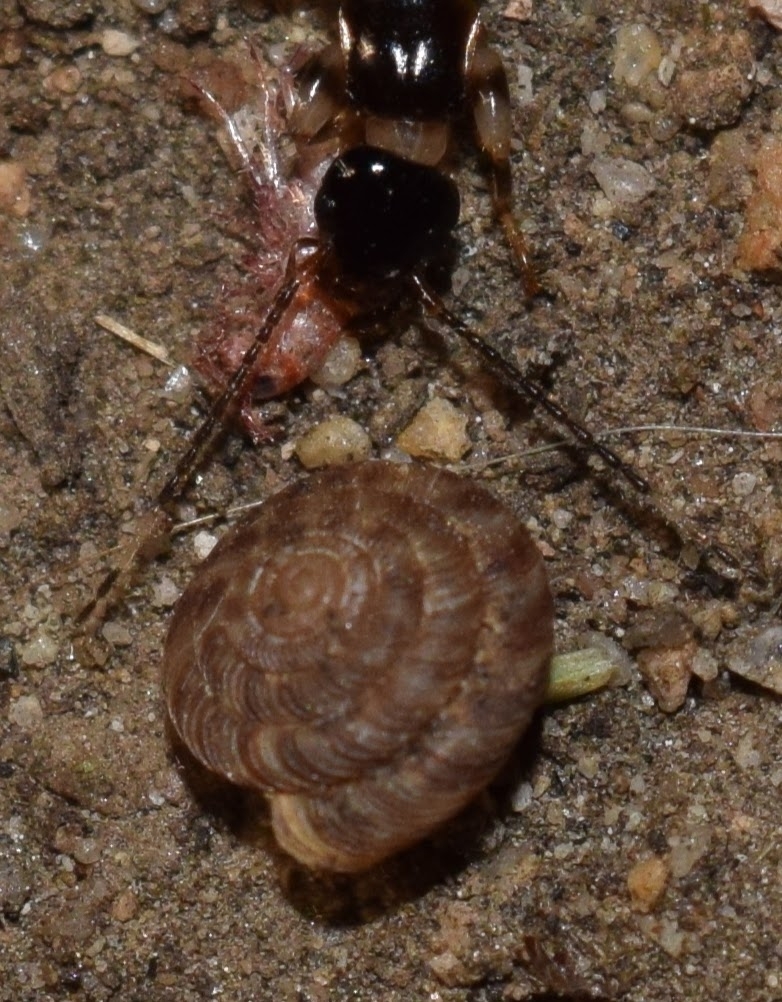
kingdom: Animalia
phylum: Mollusca
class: Gastropoda
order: Stylommatophora
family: Discidae
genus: Discus
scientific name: Discus rotundatus
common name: Rounded snail
